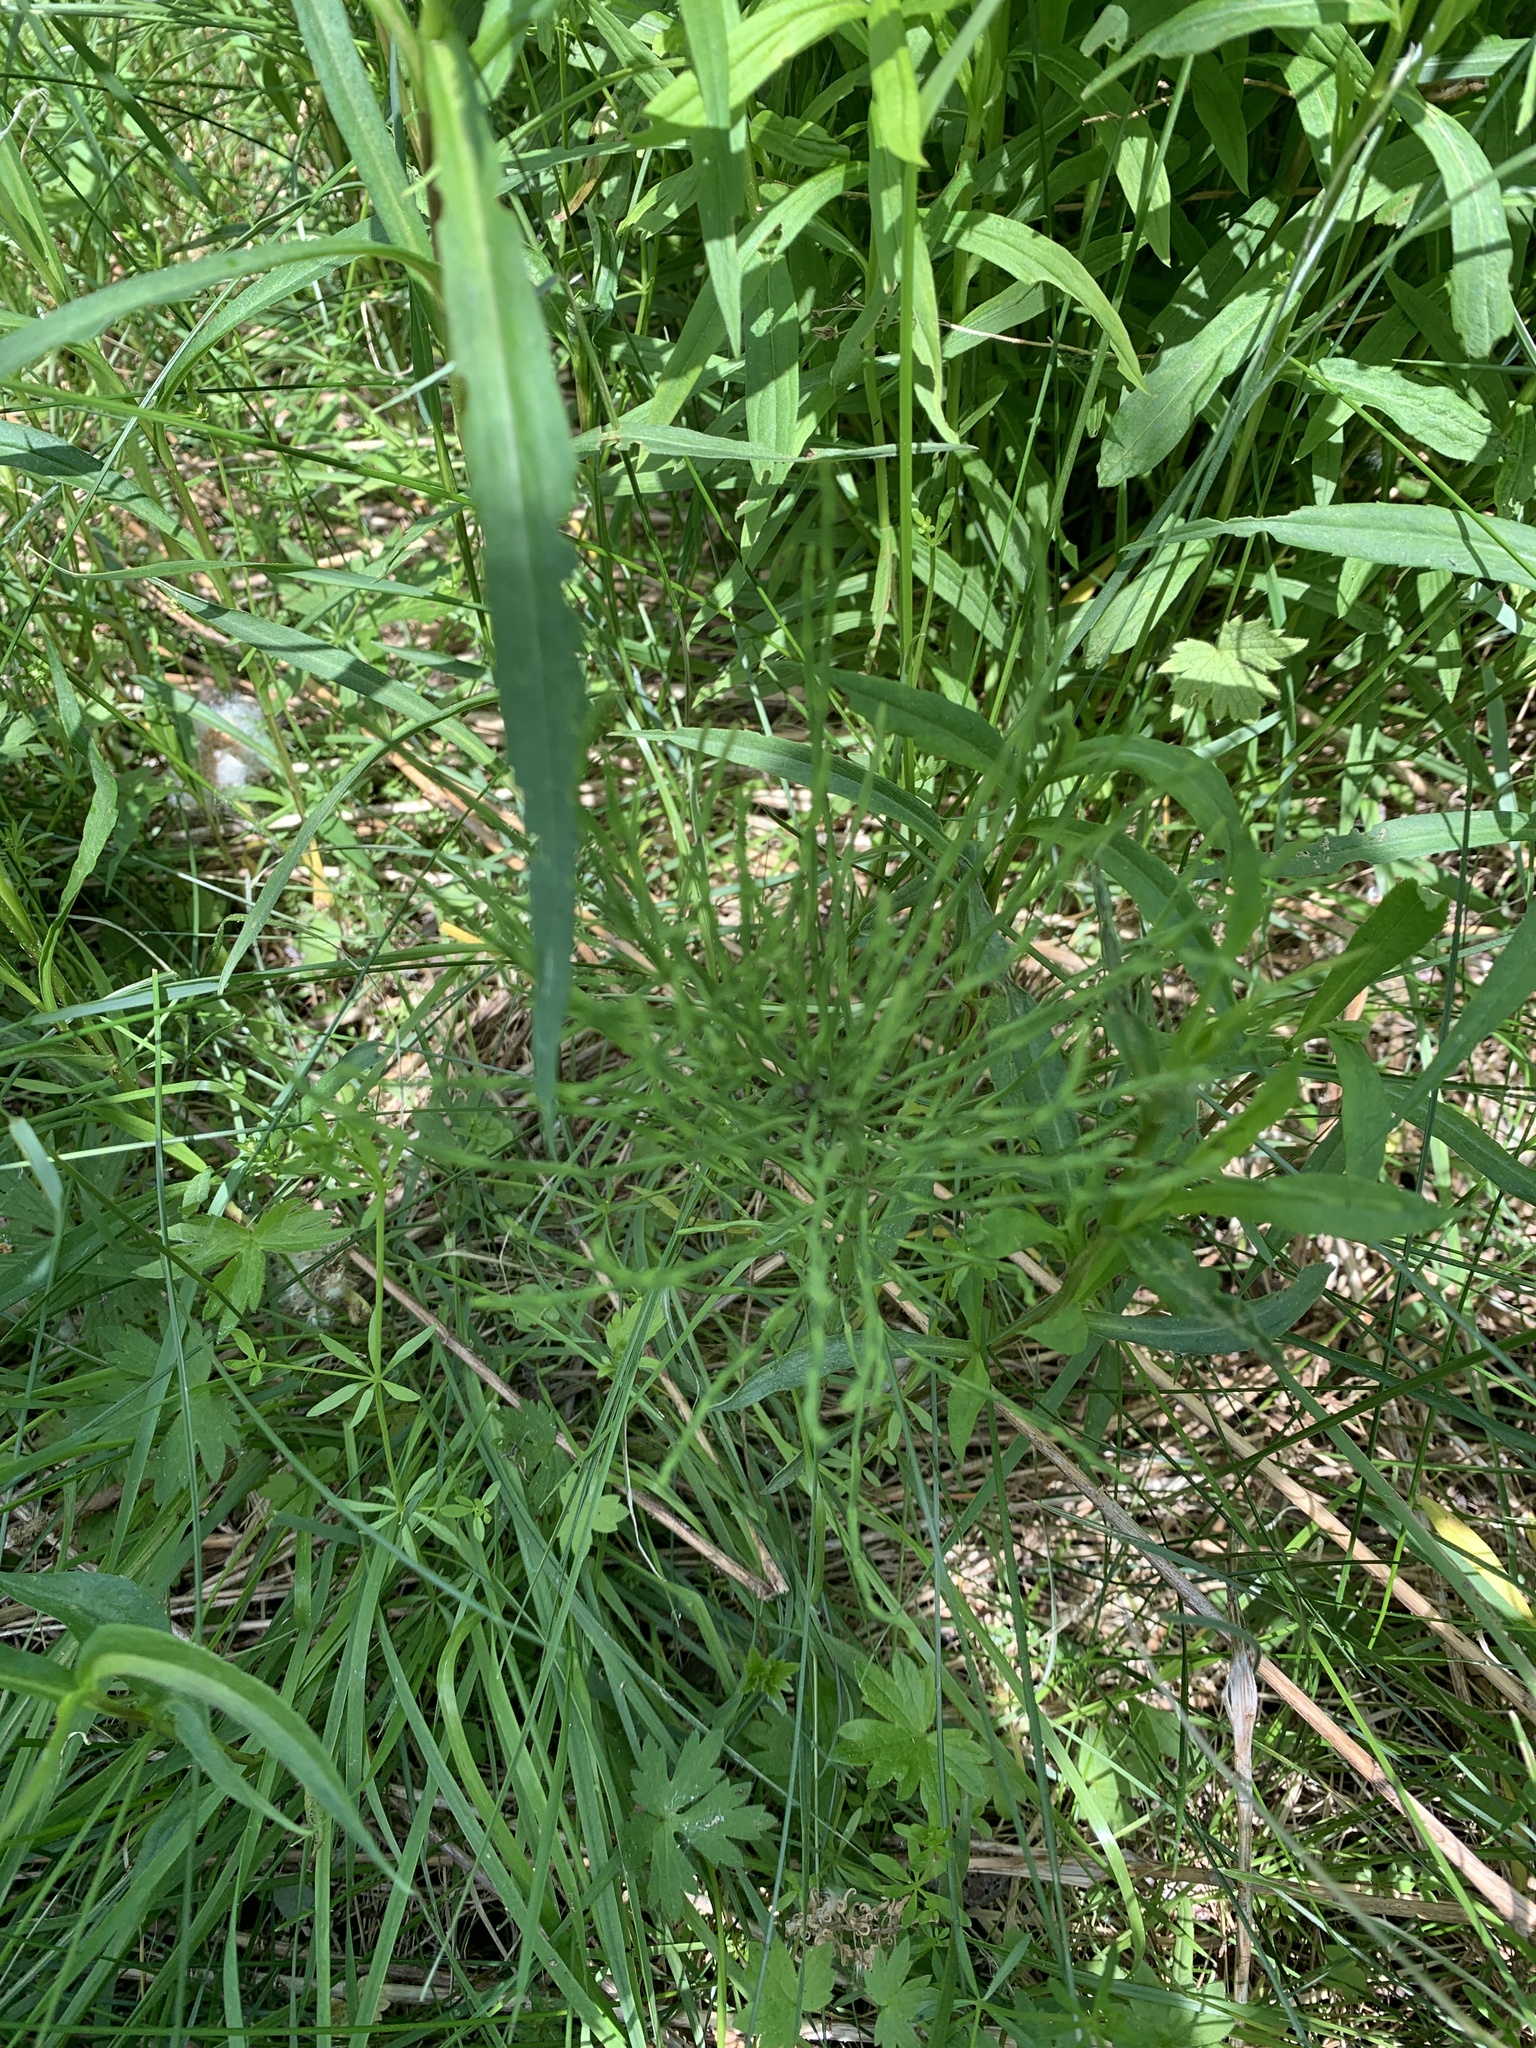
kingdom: Plantae
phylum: Tracheophyta
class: Polypodiopsida
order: Equisetales
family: Equisetaceae
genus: Equisetum
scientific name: Equisetum arvense
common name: Field horsetail
